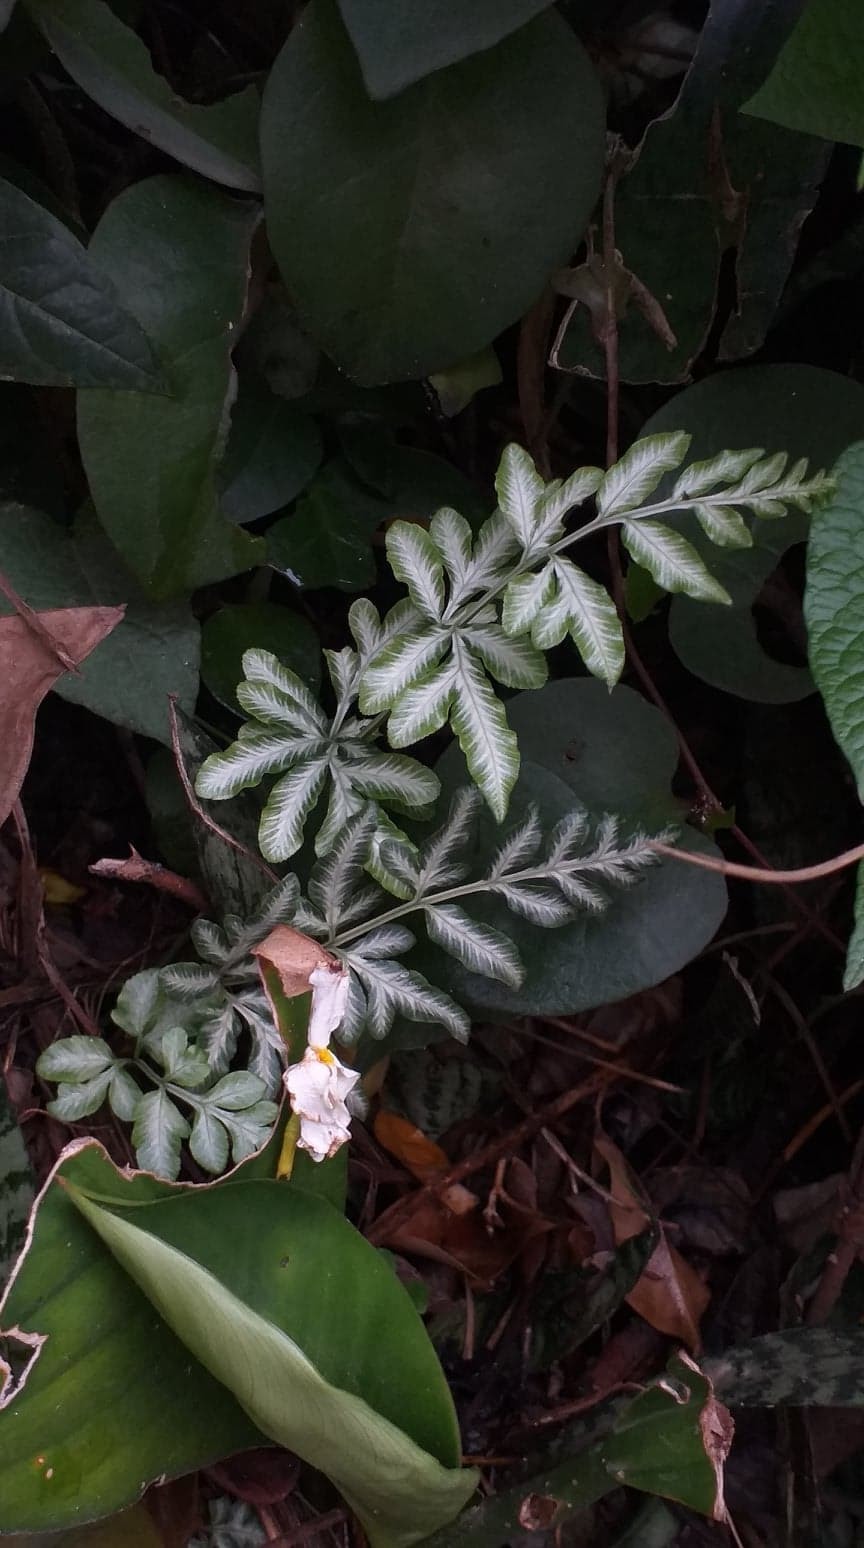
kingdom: Plantae
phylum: Tracheophyta
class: Polypodiopsida
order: Polypodiales
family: Pteridaceae
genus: Pteris
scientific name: Pteris ensiformis
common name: Sword brake
